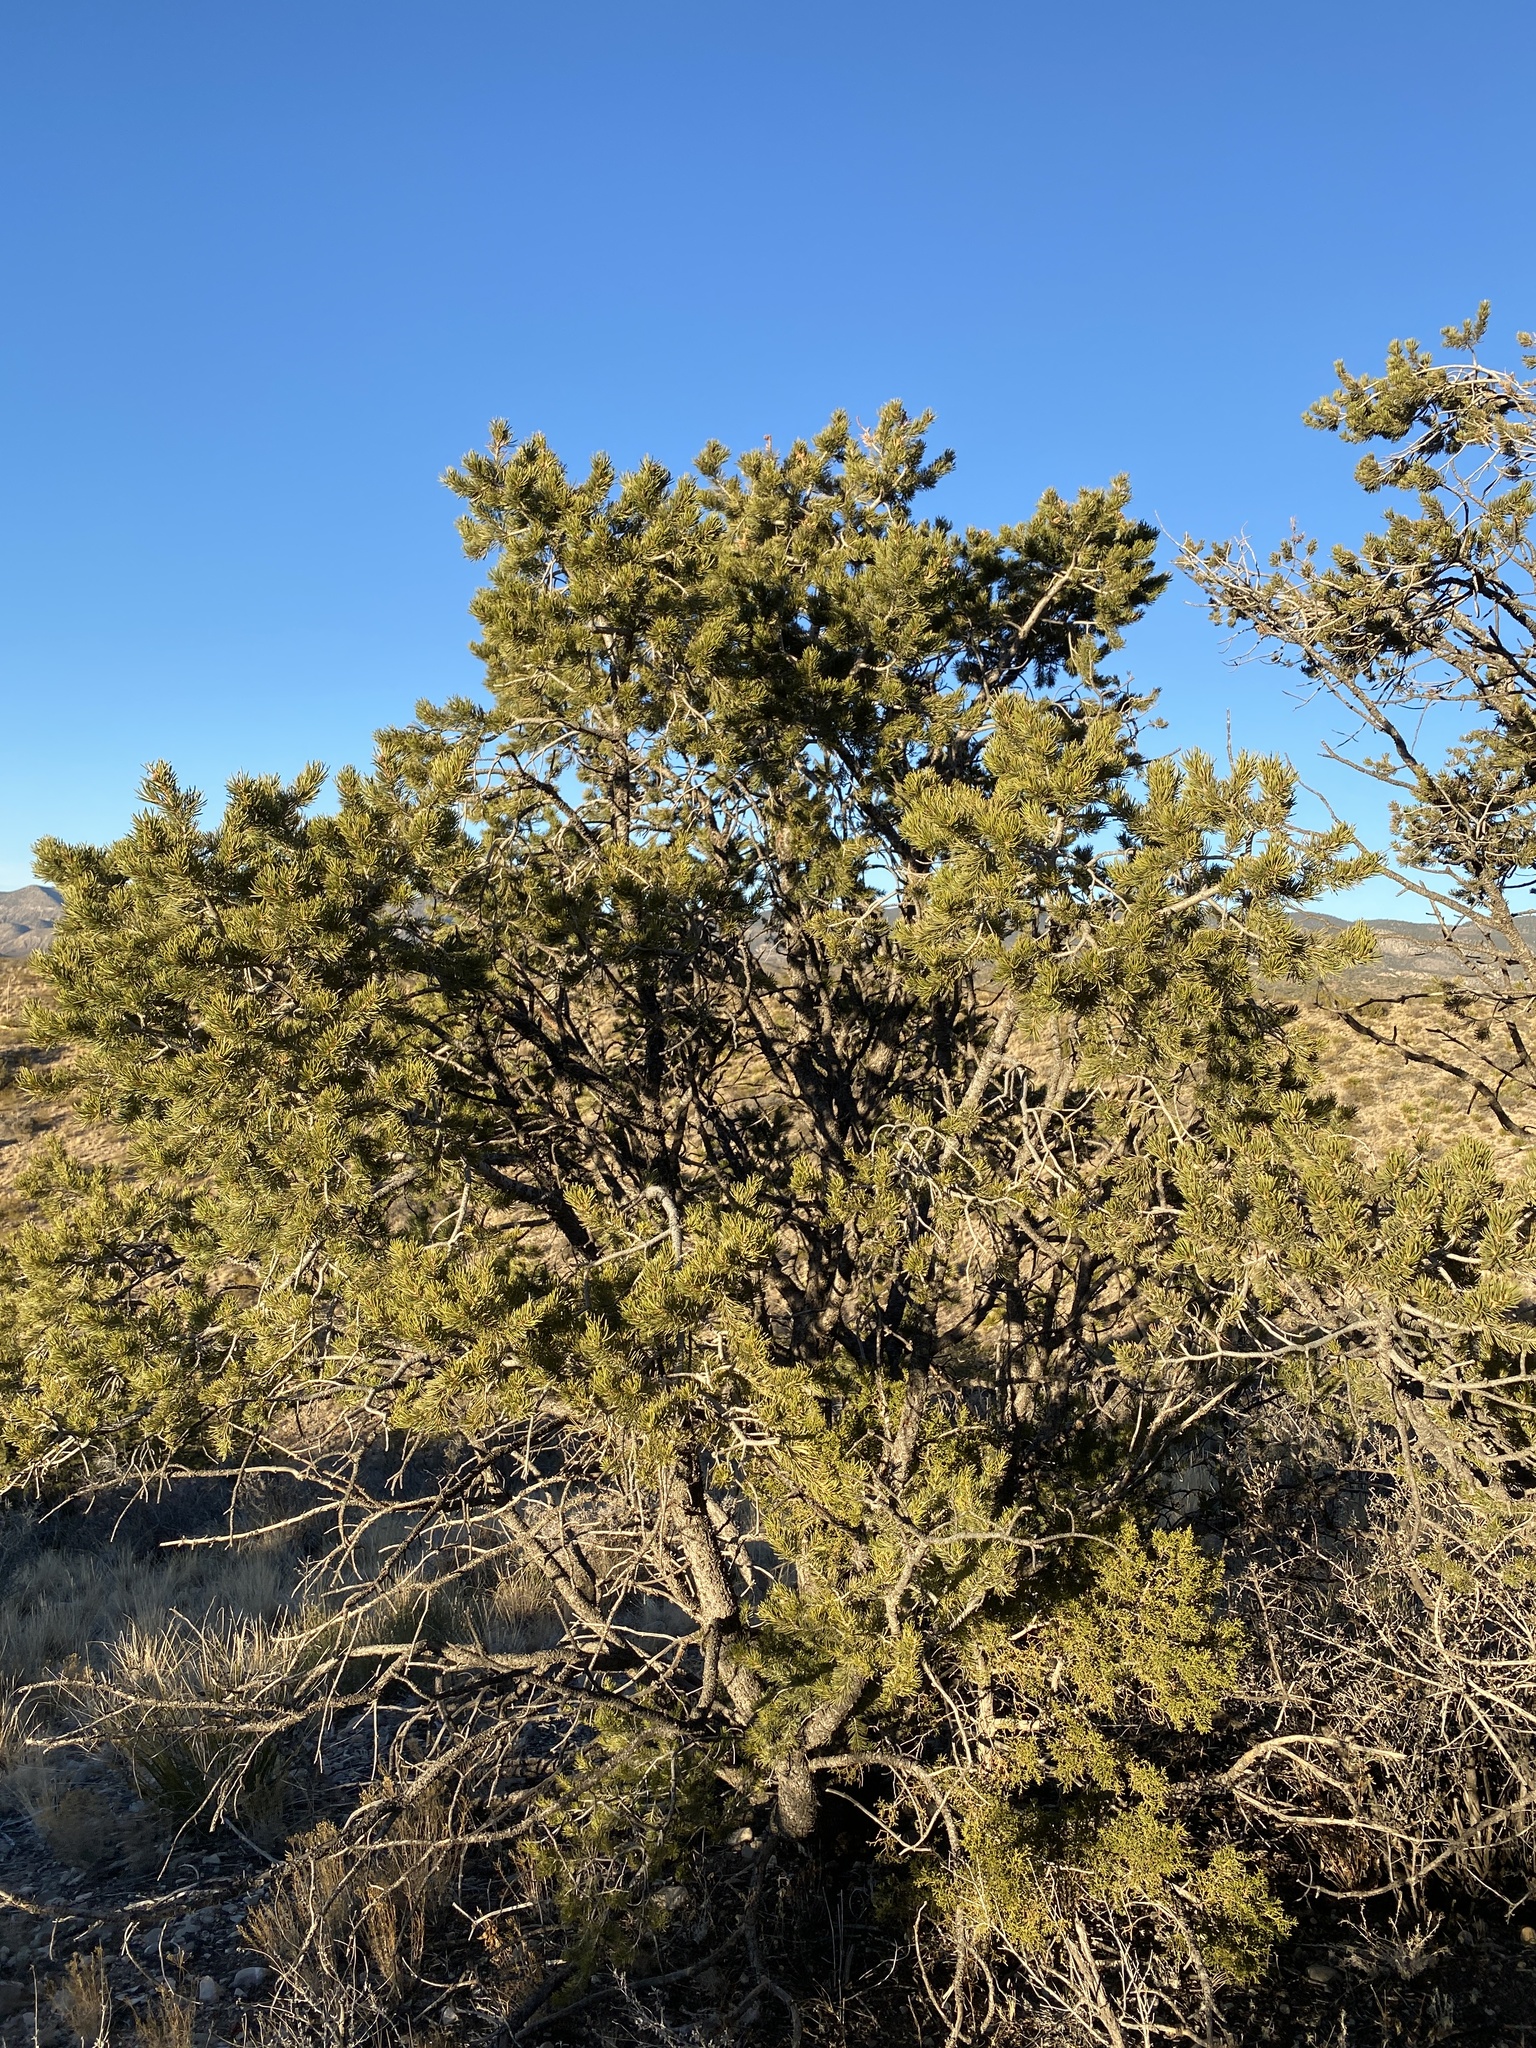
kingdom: Plantae
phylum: Tracheophyta
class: Pinopsida
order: Pinales
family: Pinaceae
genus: Pinus
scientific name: Pinus edulis
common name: Colorado pinyon
